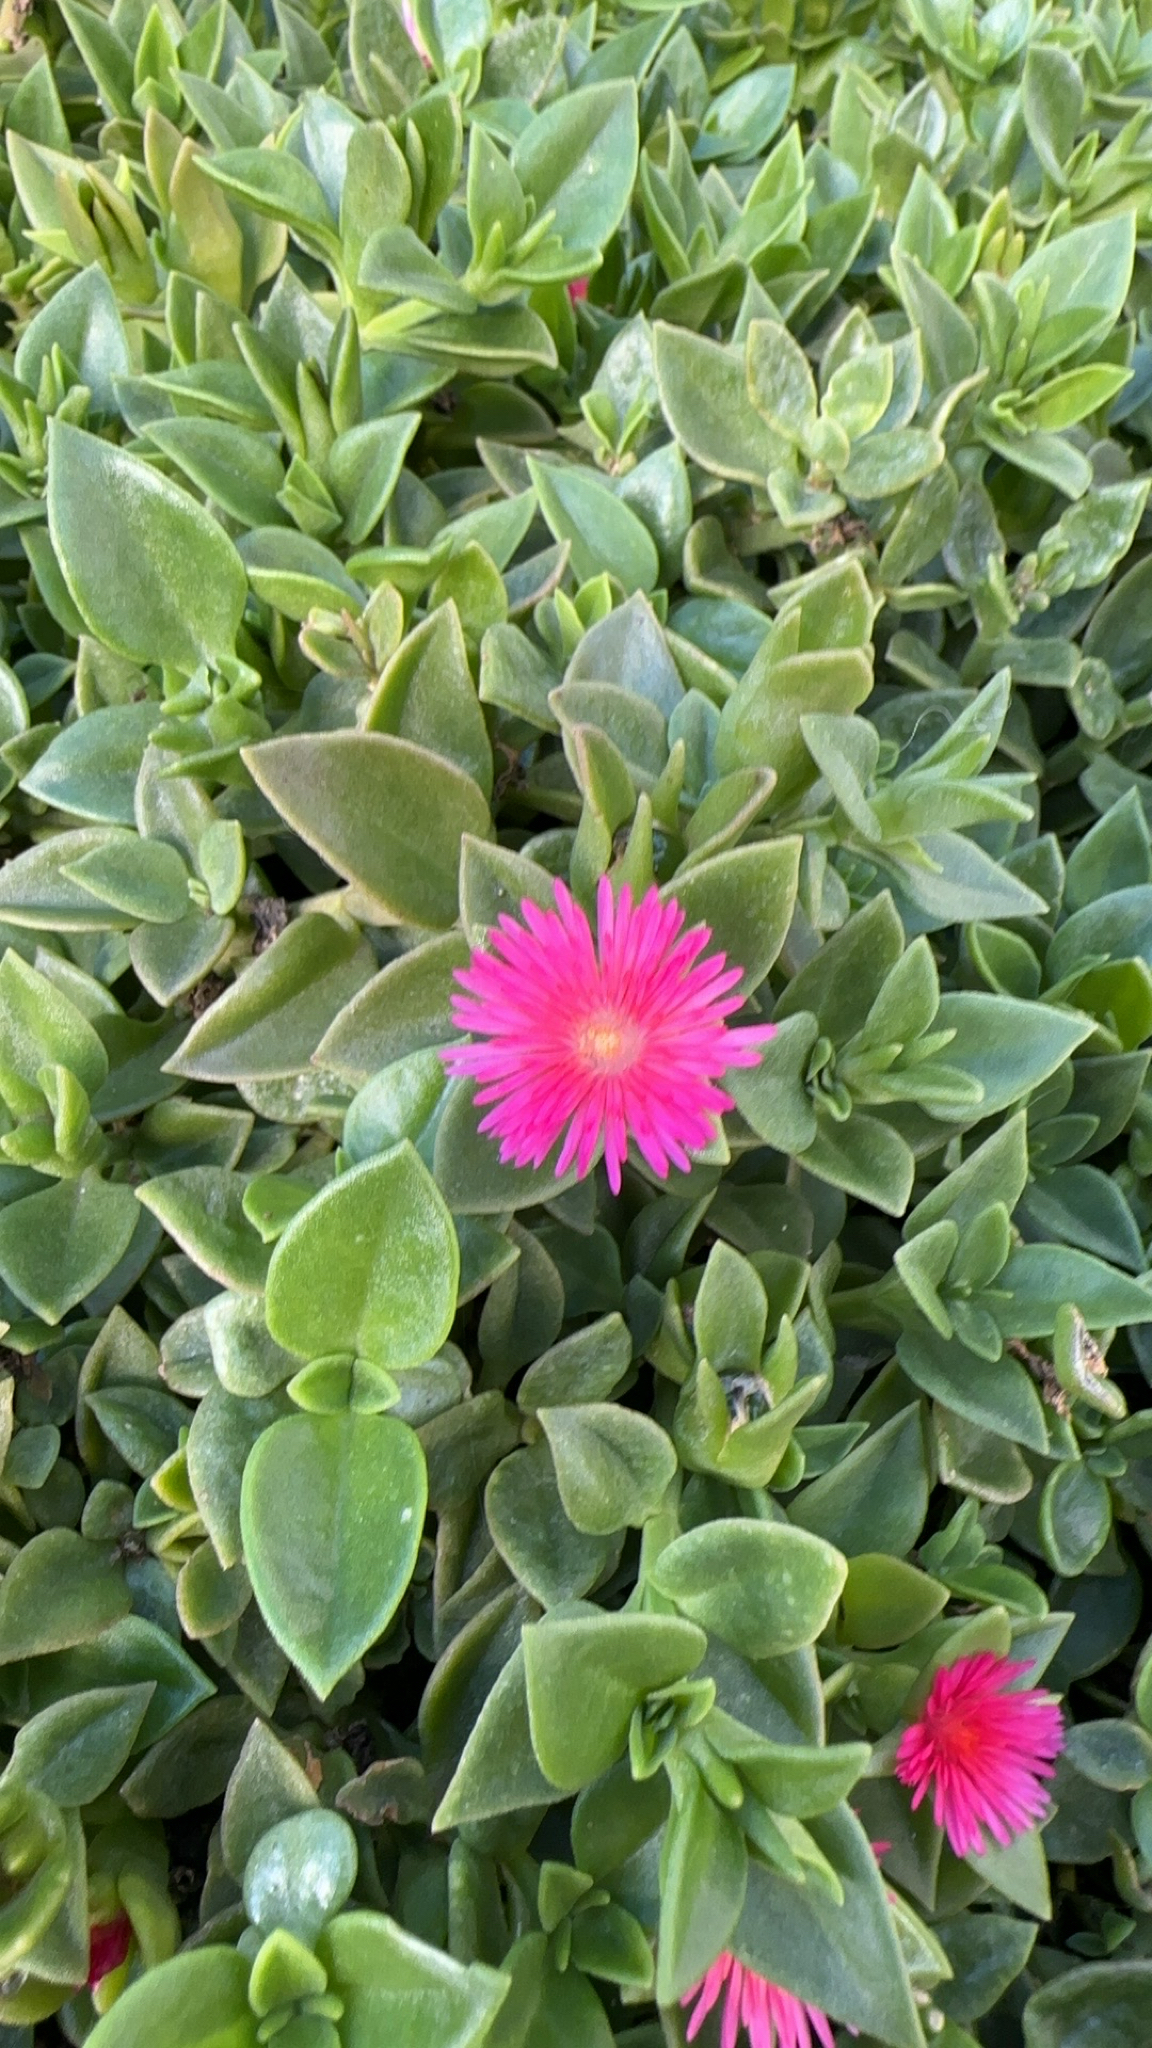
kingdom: Plantae
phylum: Tracheophyta
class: Magnoliopsida
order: Caryophyllales
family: Aizoaceae
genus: Mesembryanthemum
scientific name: Mesembryanthemum cordifolium
